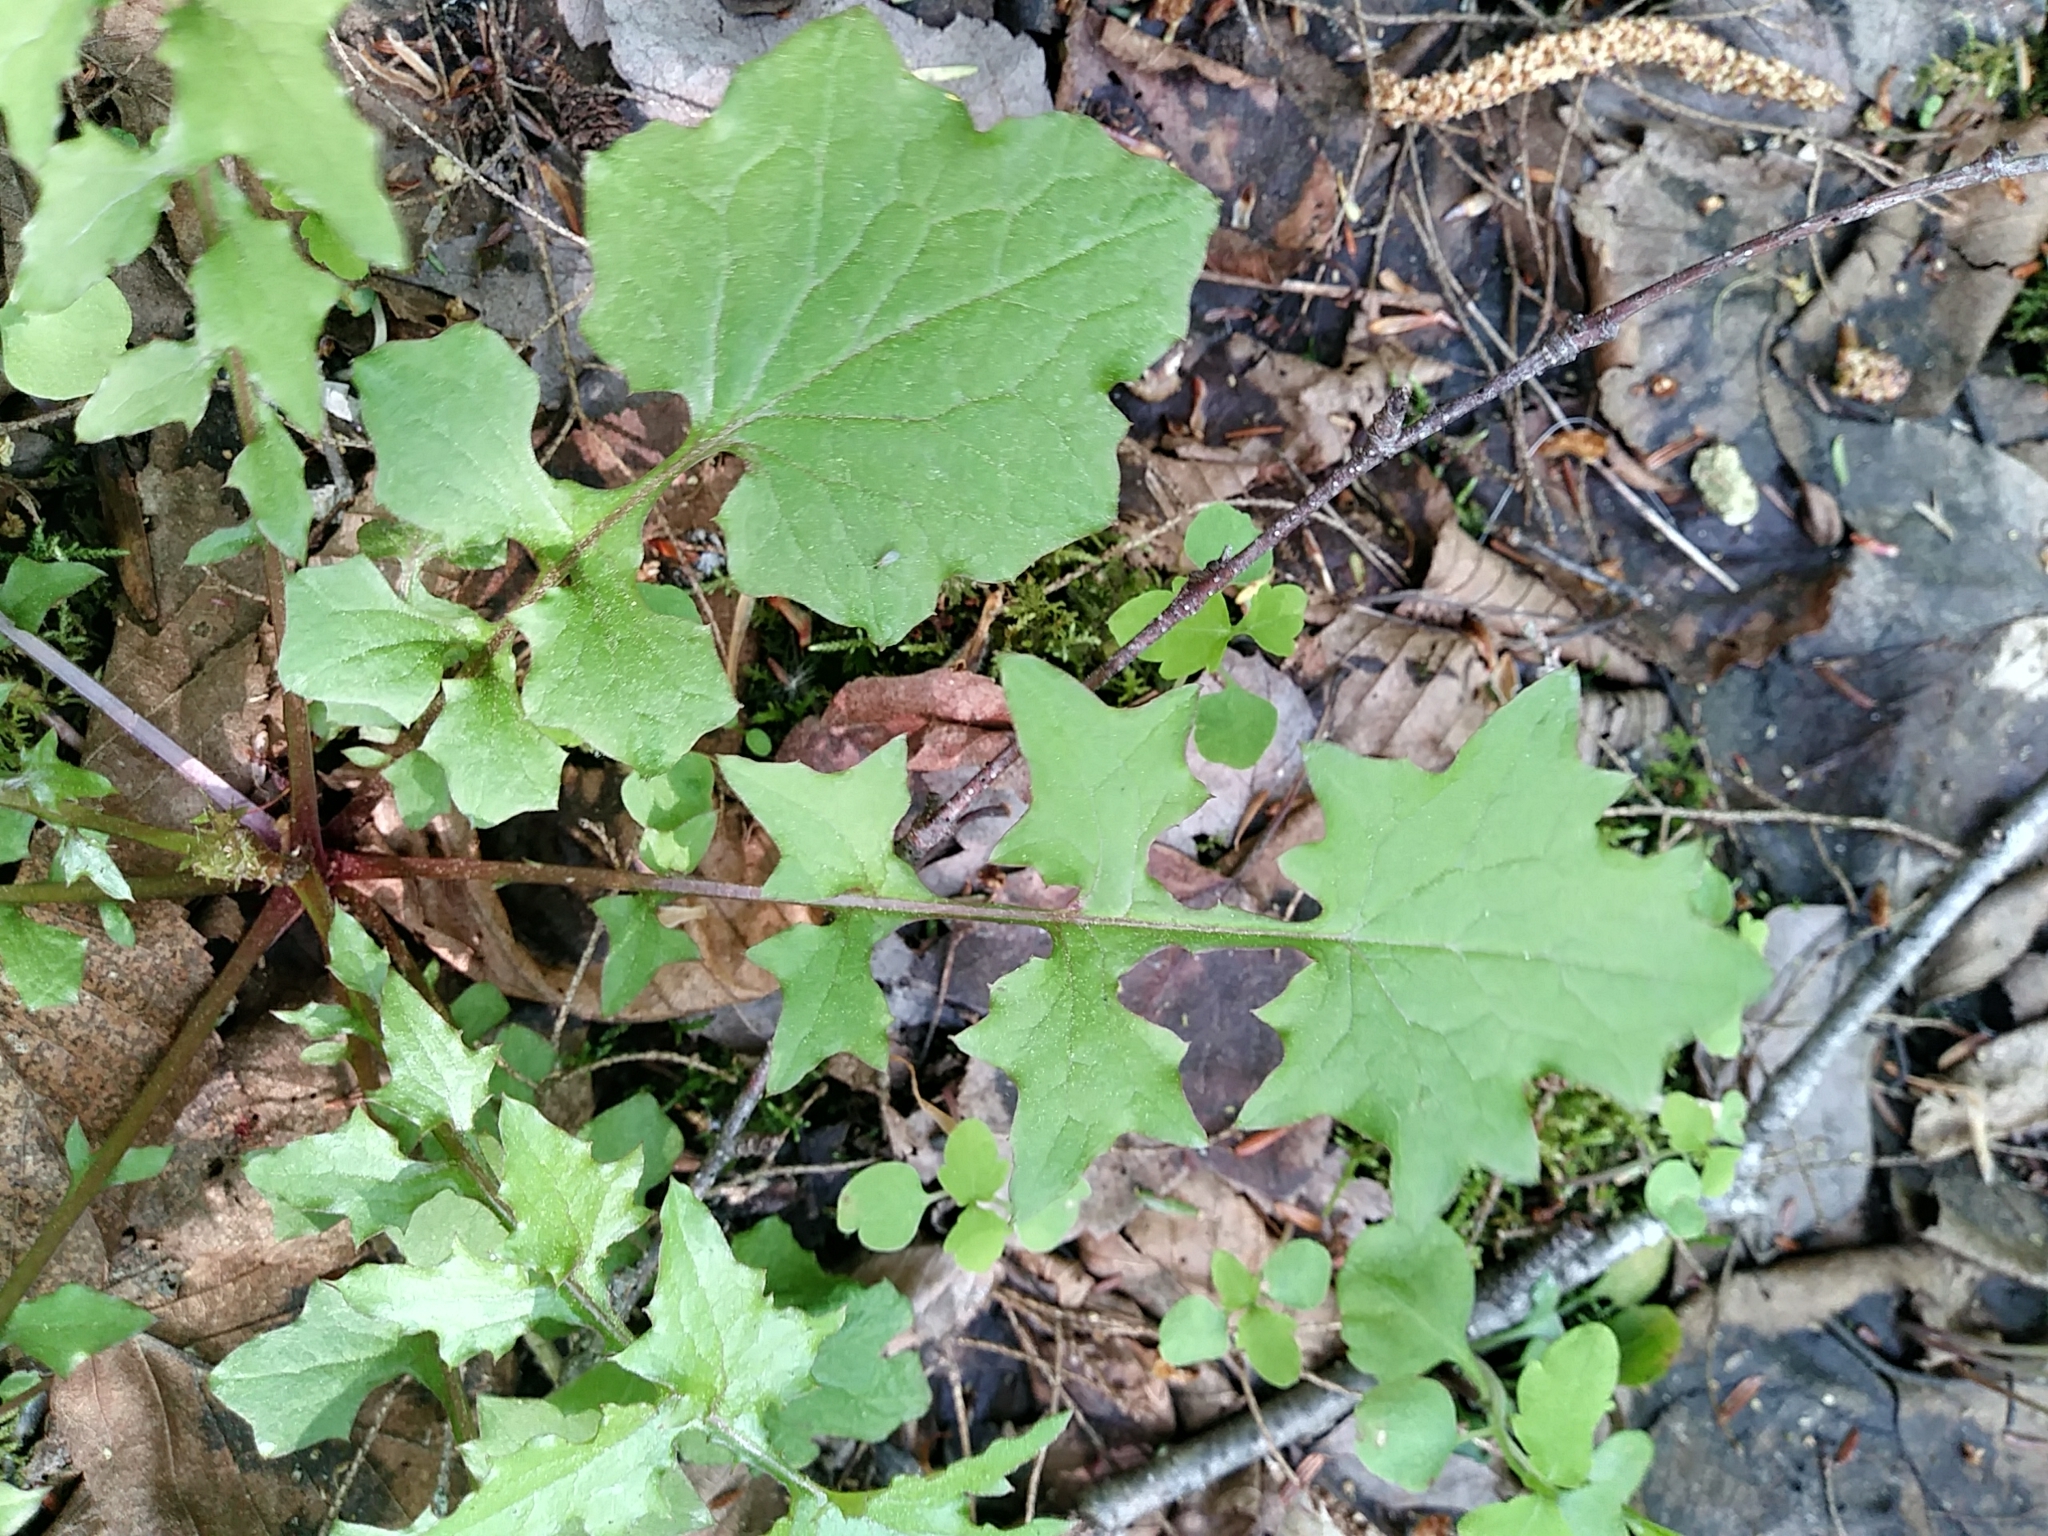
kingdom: Plantae
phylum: Tracheophyta
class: Magnoliopsida
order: Asterales
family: Asteraceae
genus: Mycelis
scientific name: Mycelis muralis
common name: Wall lettuce
